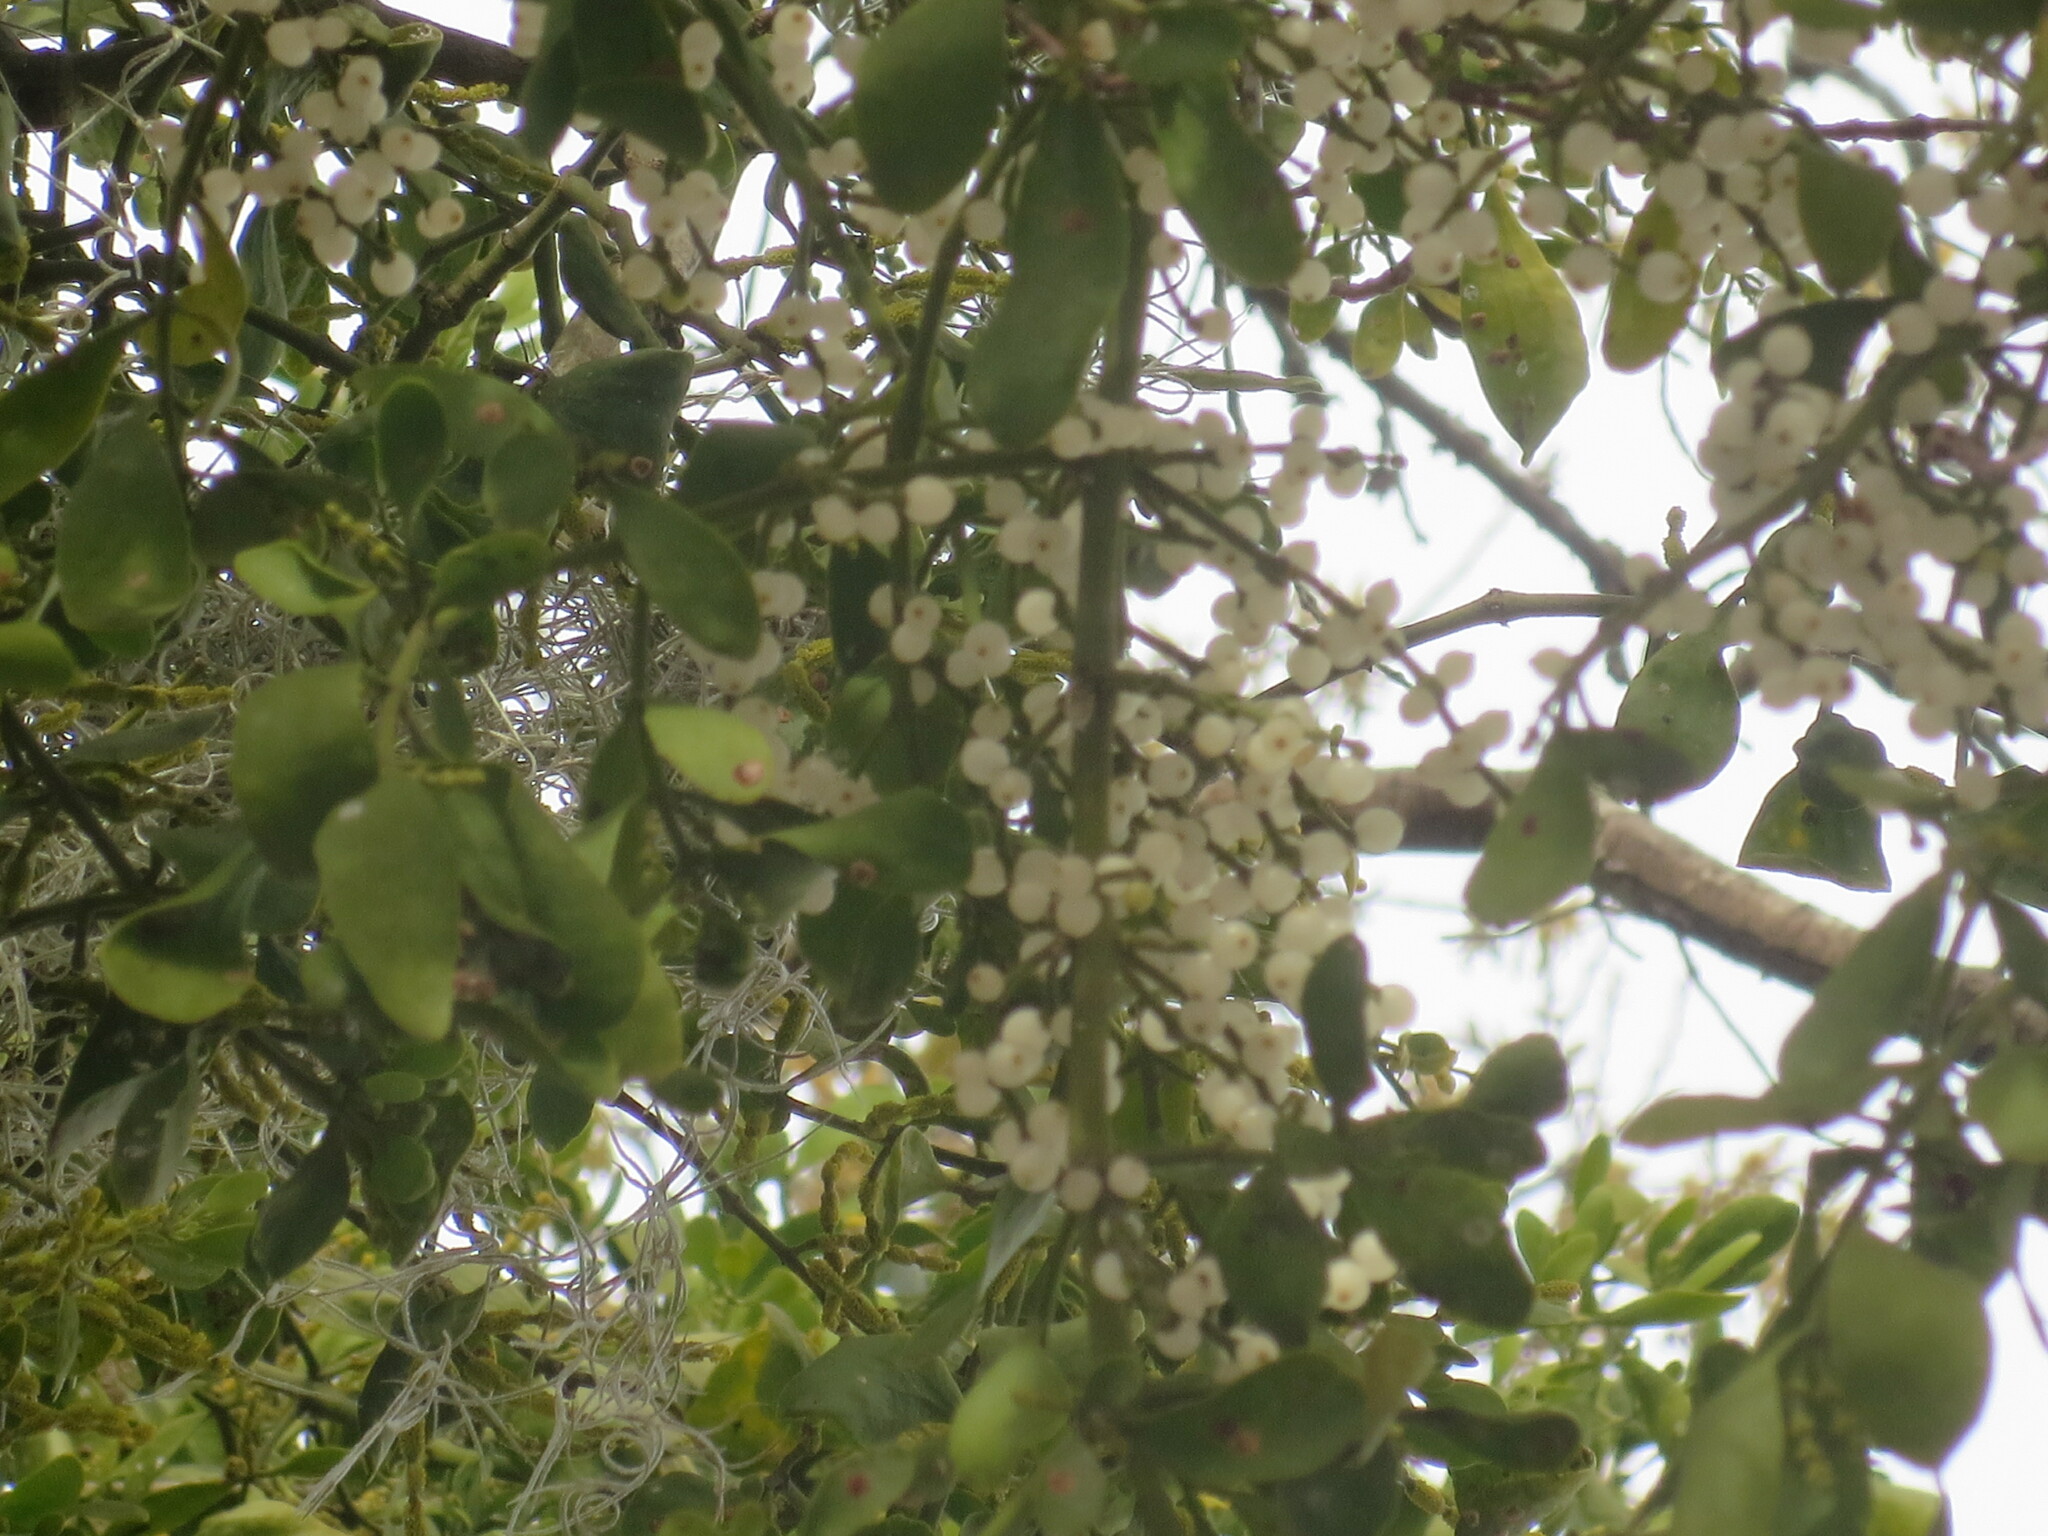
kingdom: Plantae
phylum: Tracheophyta
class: Magnoliopsida
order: Santalales
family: Viscaceae
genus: Phoradendron
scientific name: Phoradendron leucarpum
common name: Pacific mistletoe
